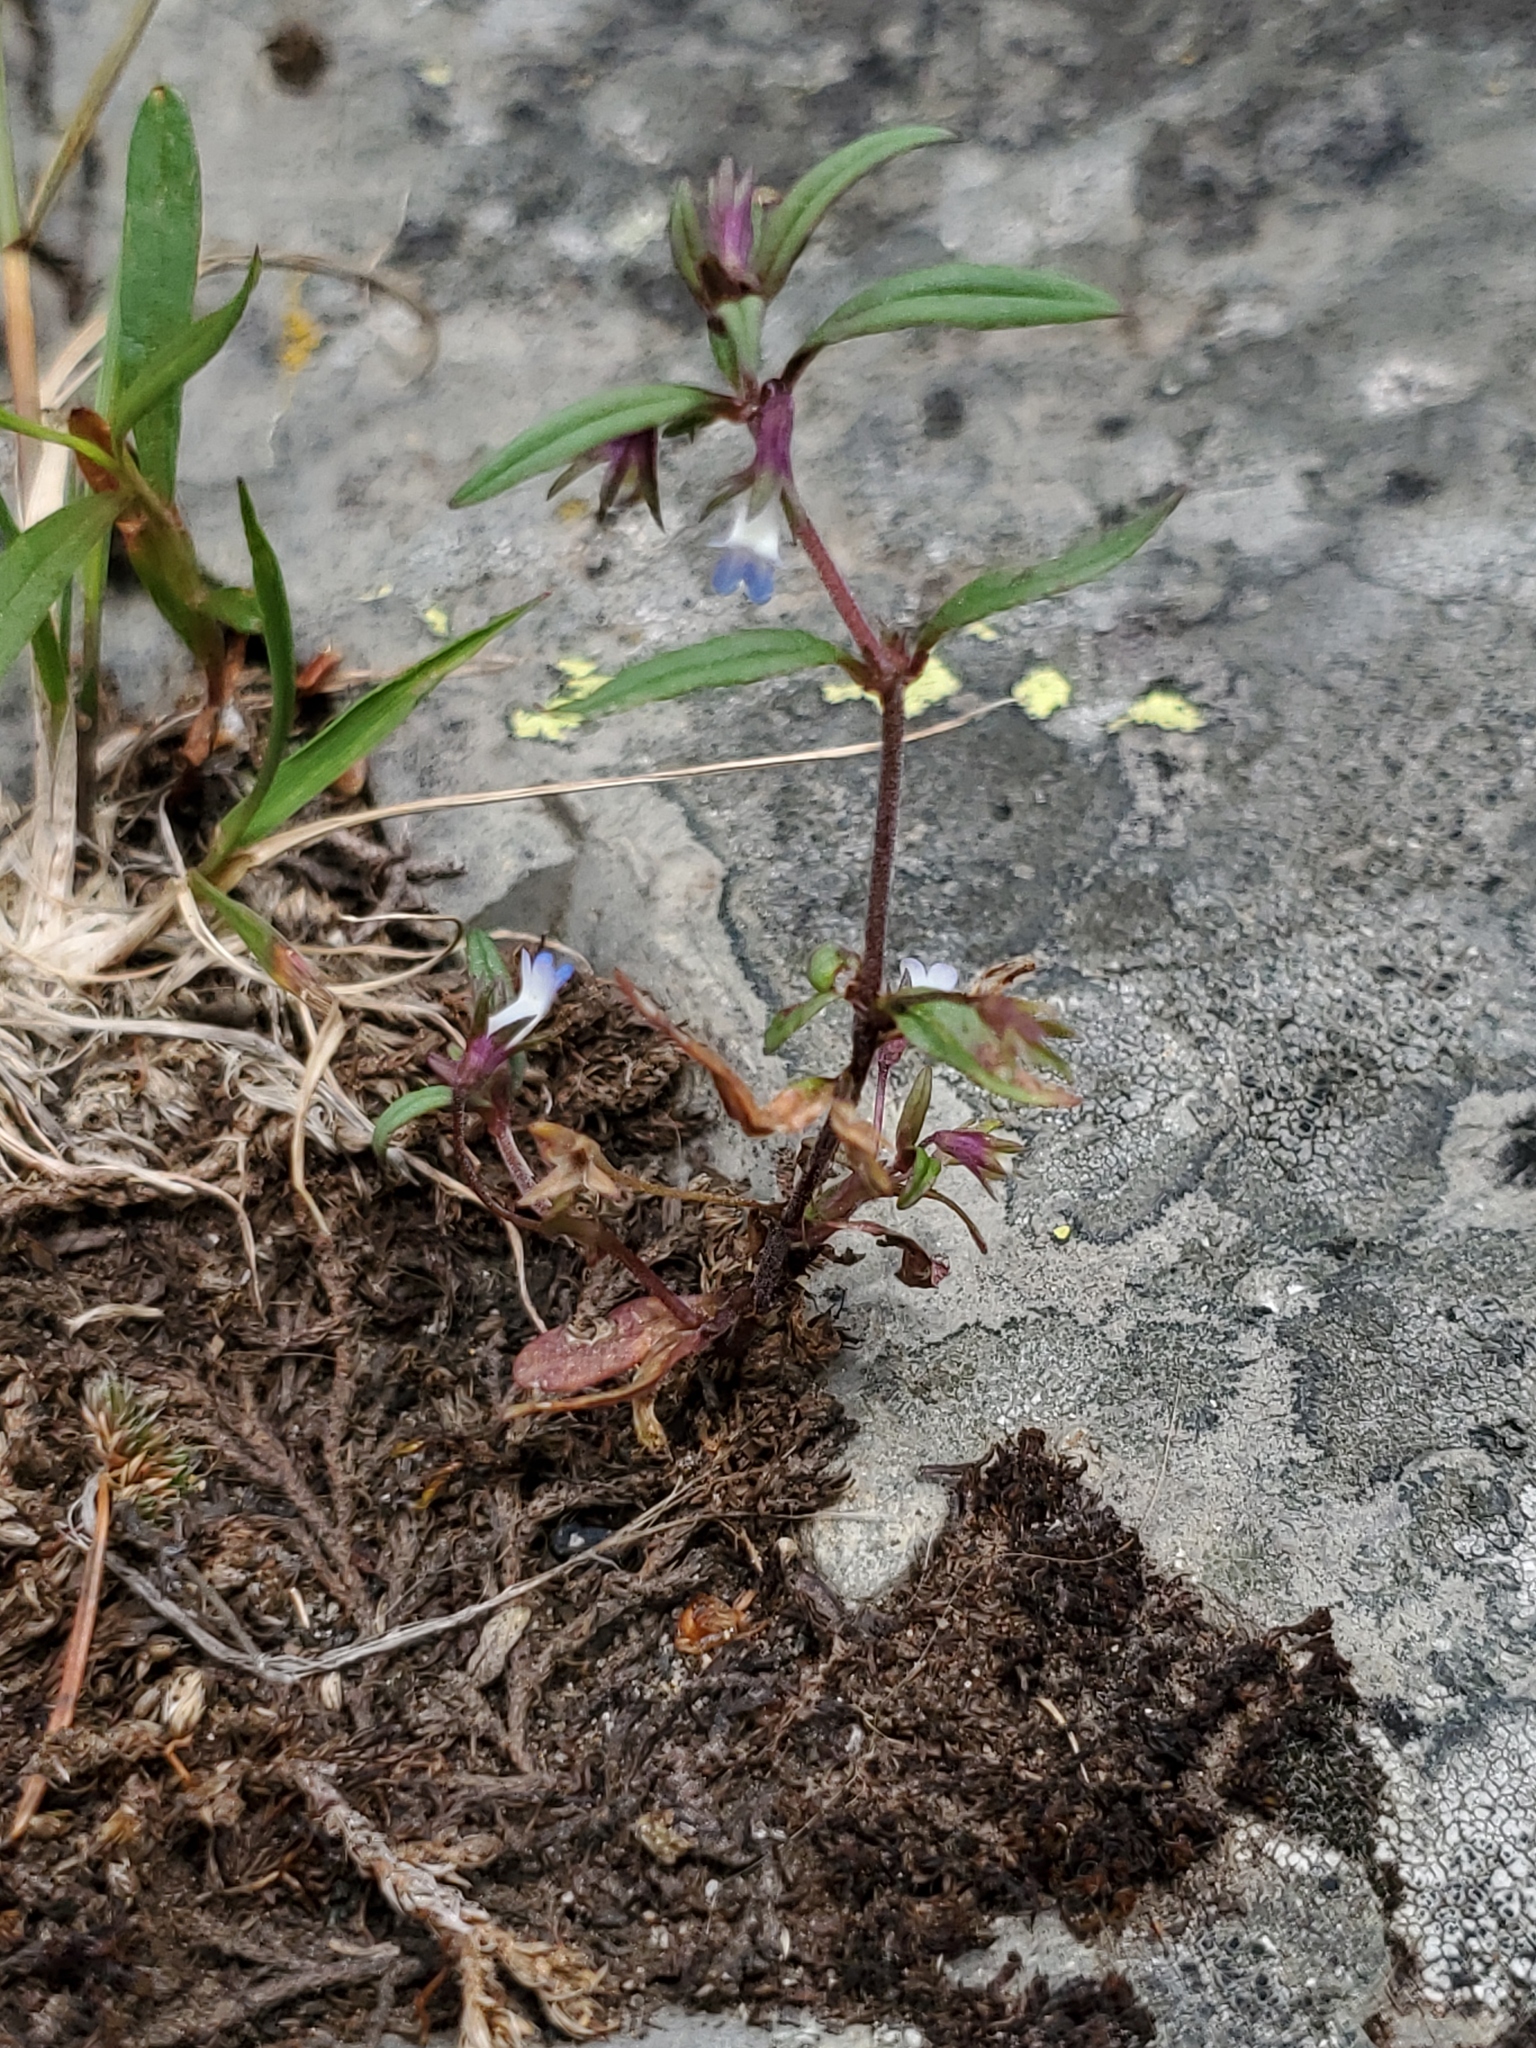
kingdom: Plantae
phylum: Tracheophyta
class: Magnoliopsida
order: Lamiales
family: Plantaginaceae
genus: Collinsia
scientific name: Collinsia parviflora
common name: Blue-lips
